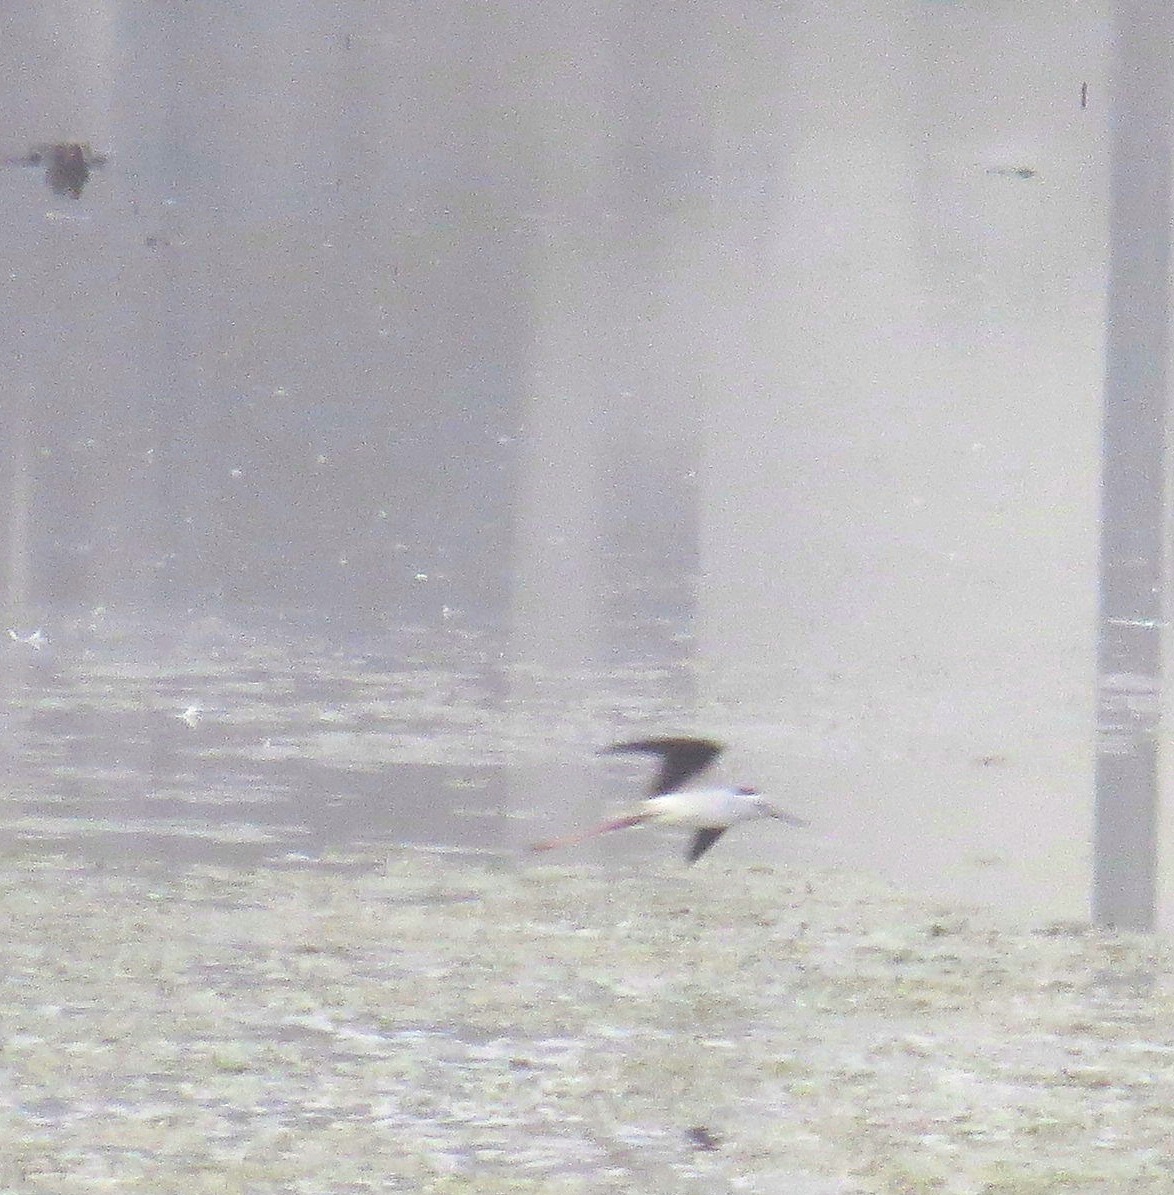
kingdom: Animalia
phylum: Chordata
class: Aves
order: Charadriiformes
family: Recurvirostridae
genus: Himantopus
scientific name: Himantopus himantopus
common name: Black-winged stilt
